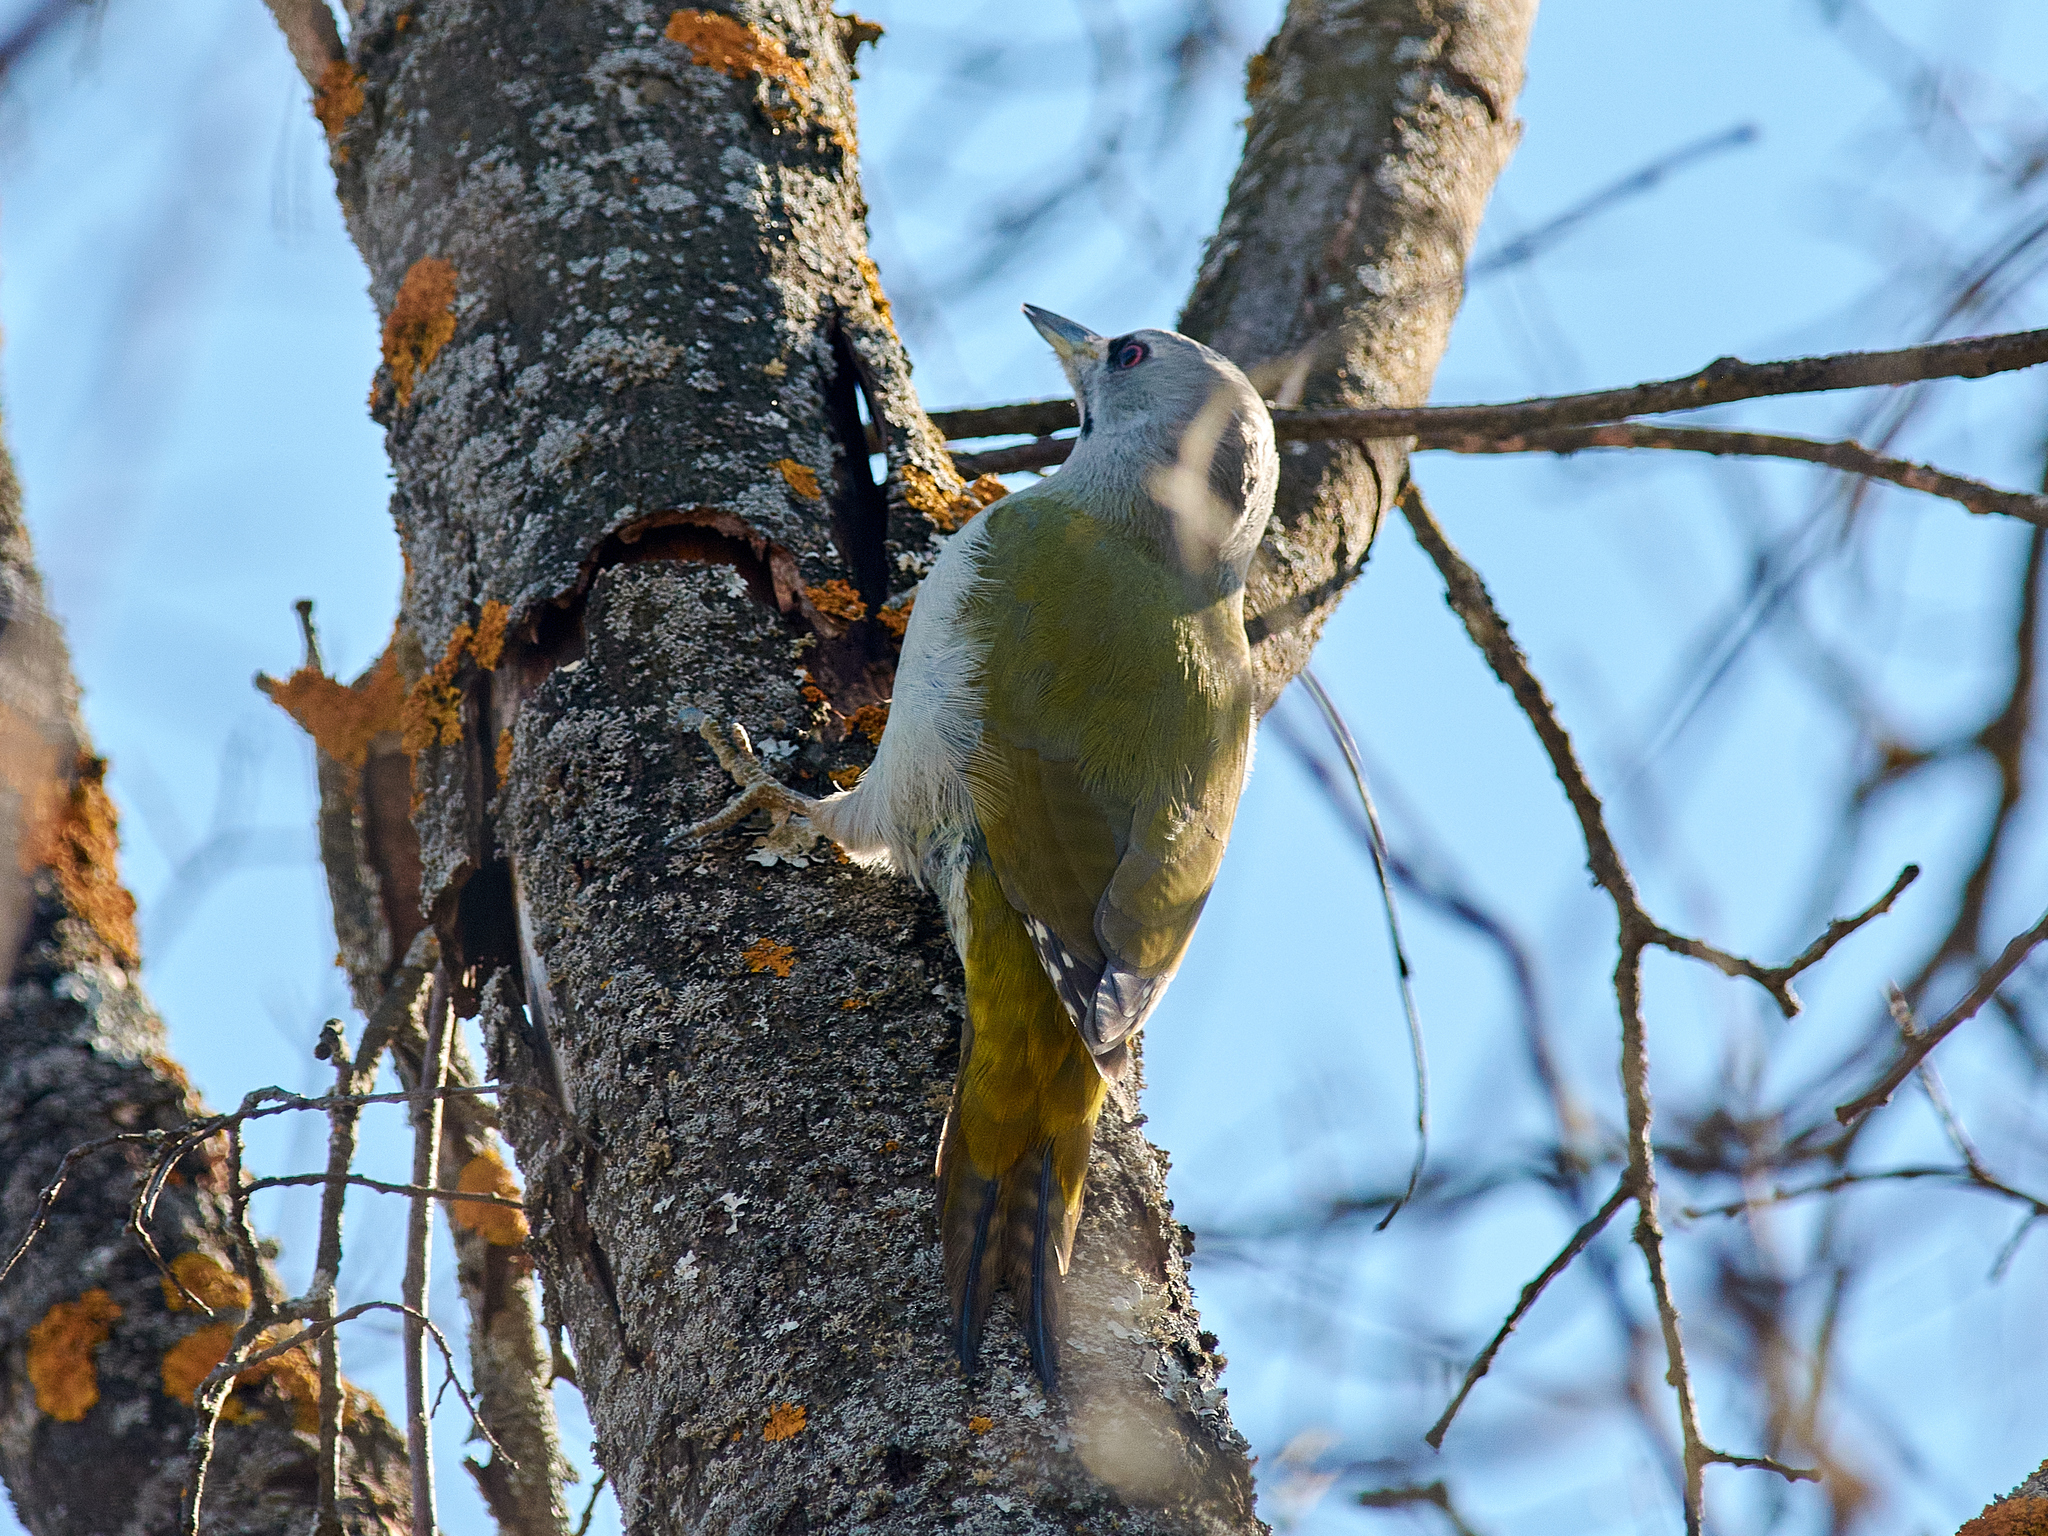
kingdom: Animalia
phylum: Chordata
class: Aves
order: Piciformes
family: Picidae
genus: Picus
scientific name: Picus canus
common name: Grey-headed woodpecker
